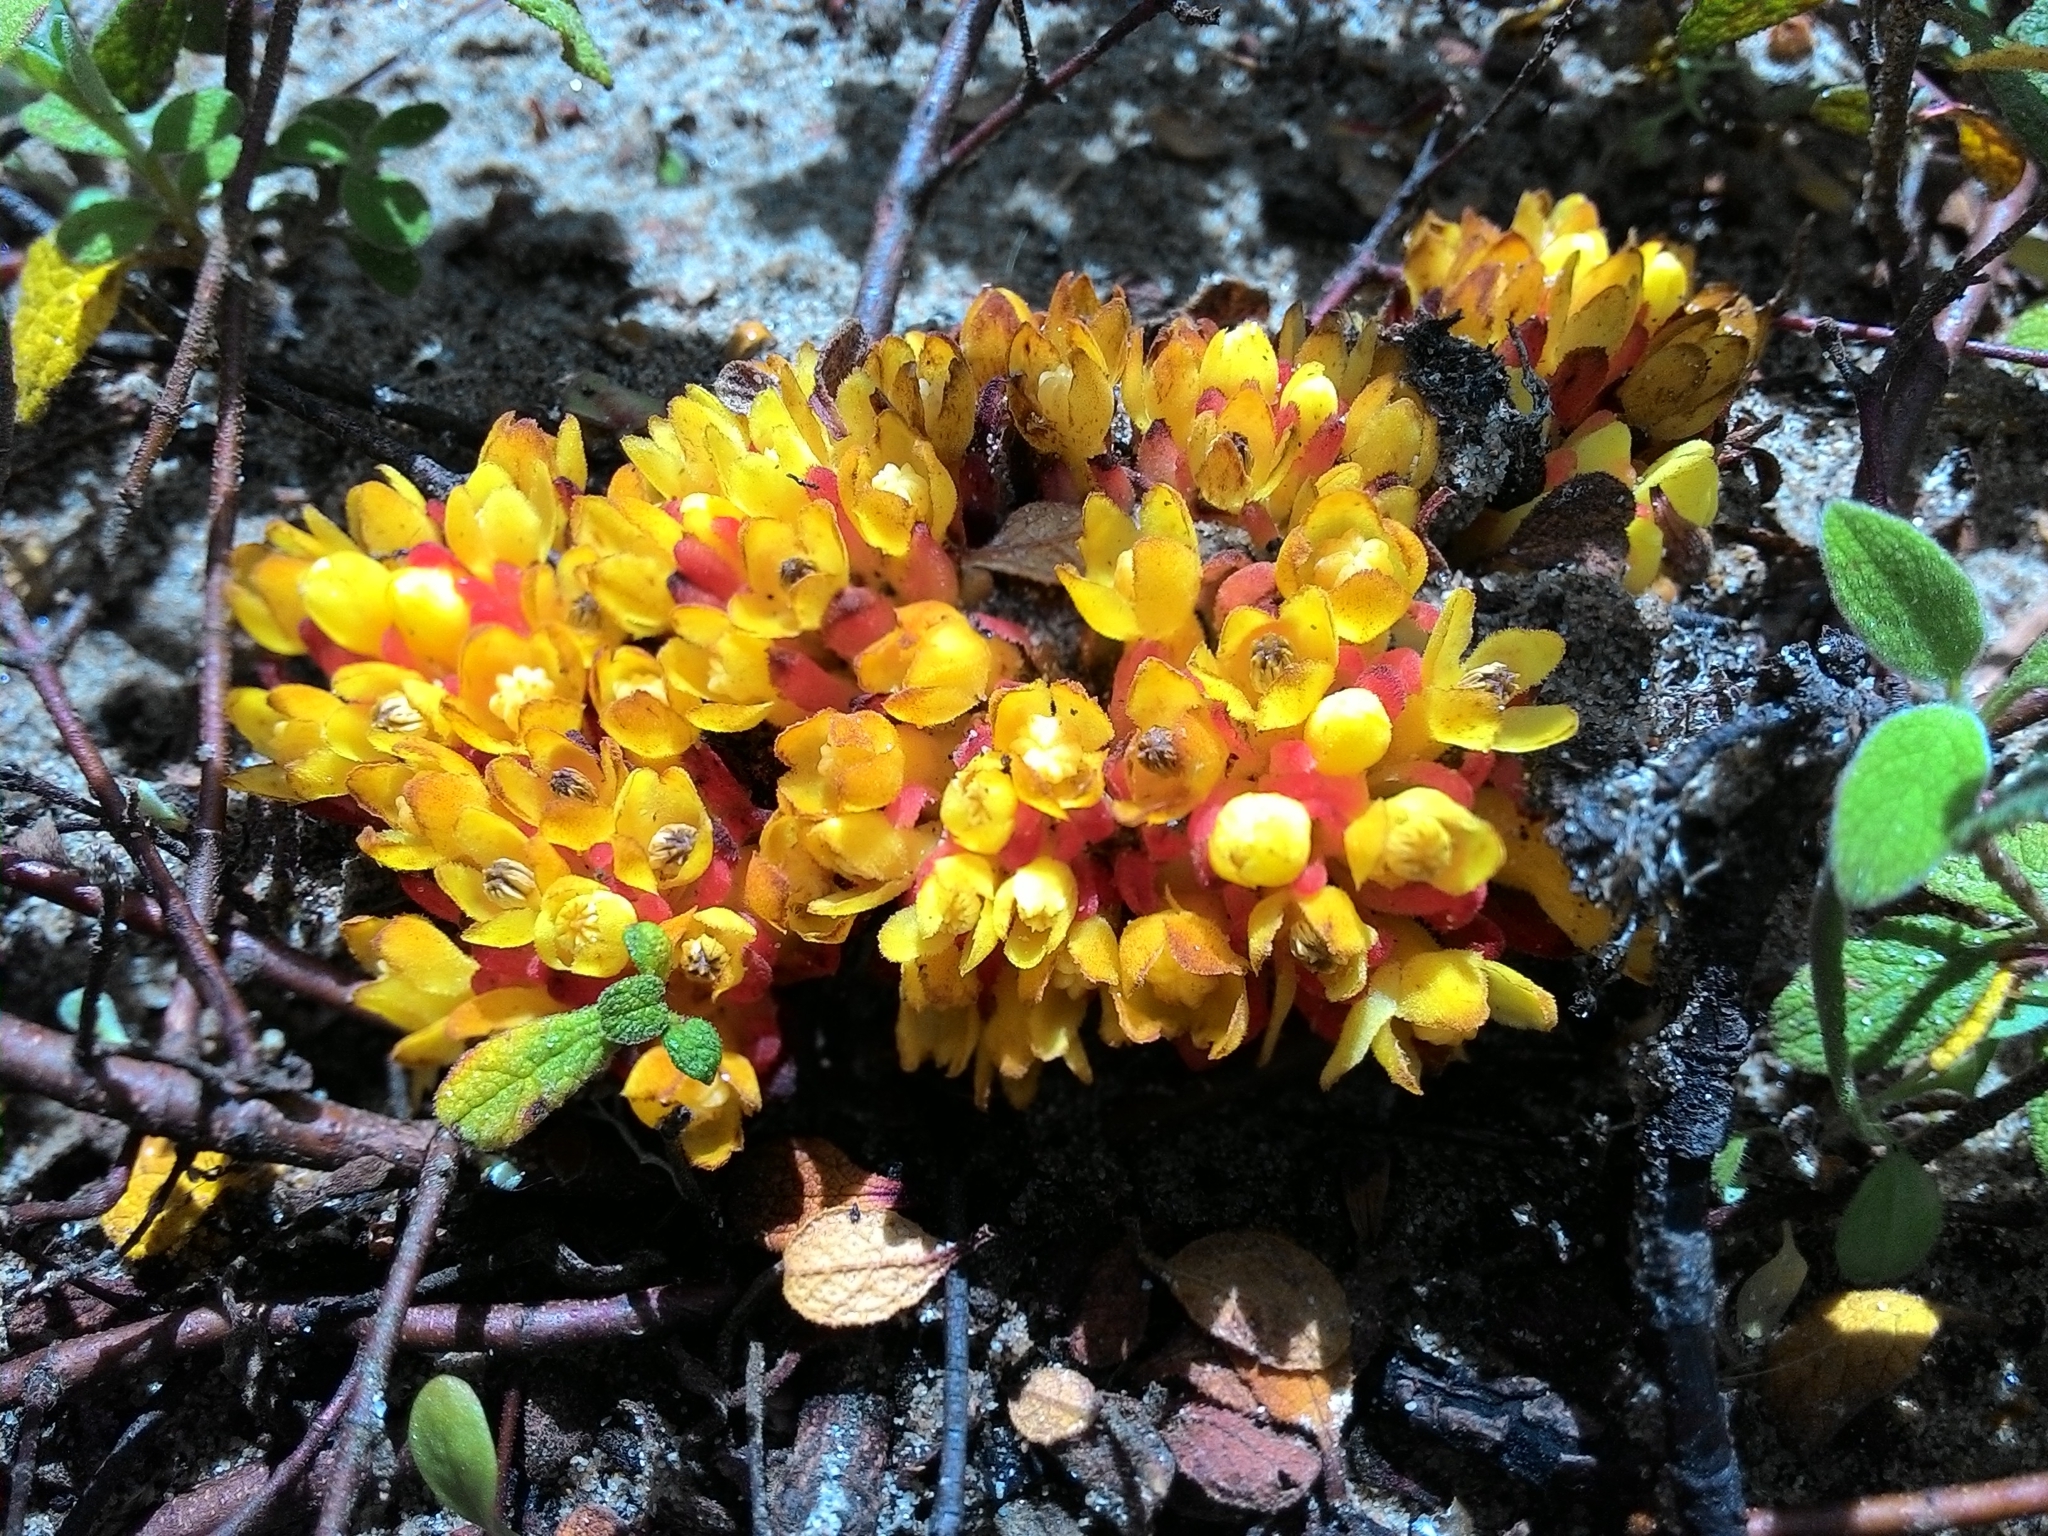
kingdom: Plantae
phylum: Tracheophyta
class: Magnoliopsida
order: Malvales
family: Cytinaceae
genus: Cytinus
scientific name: Cytinus hypocistis
